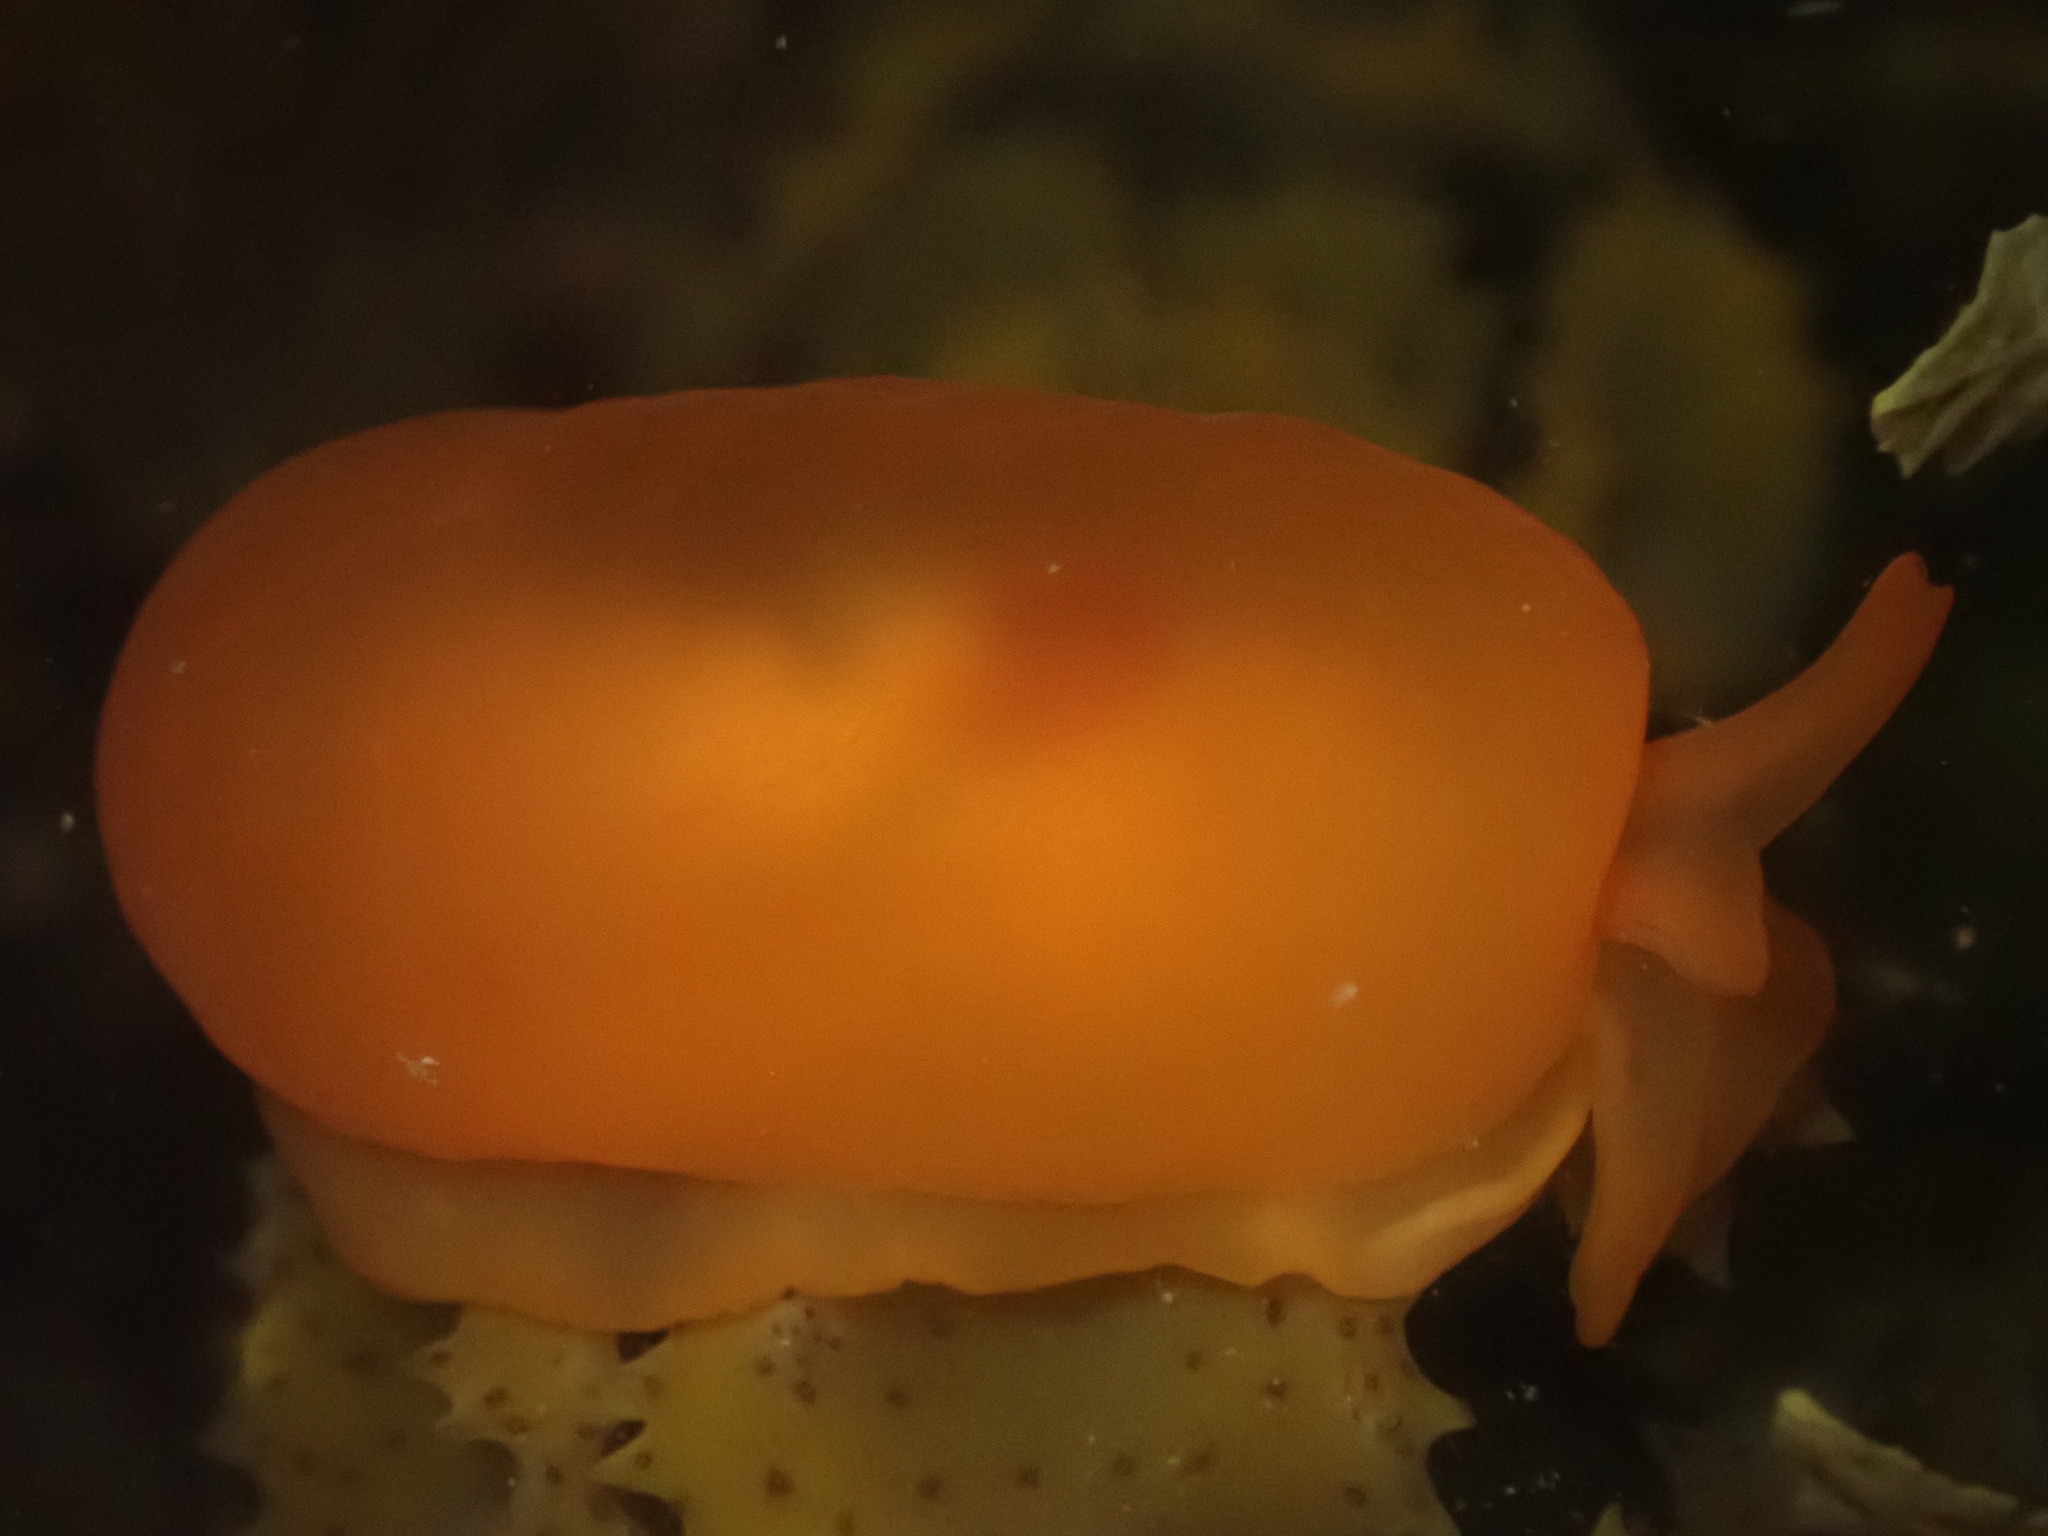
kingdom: Animalia
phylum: Mollusca
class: Gastropoda
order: Pleurobranchida
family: Pleurobranchidae
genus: Berthellina
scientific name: Berthellina delicata
